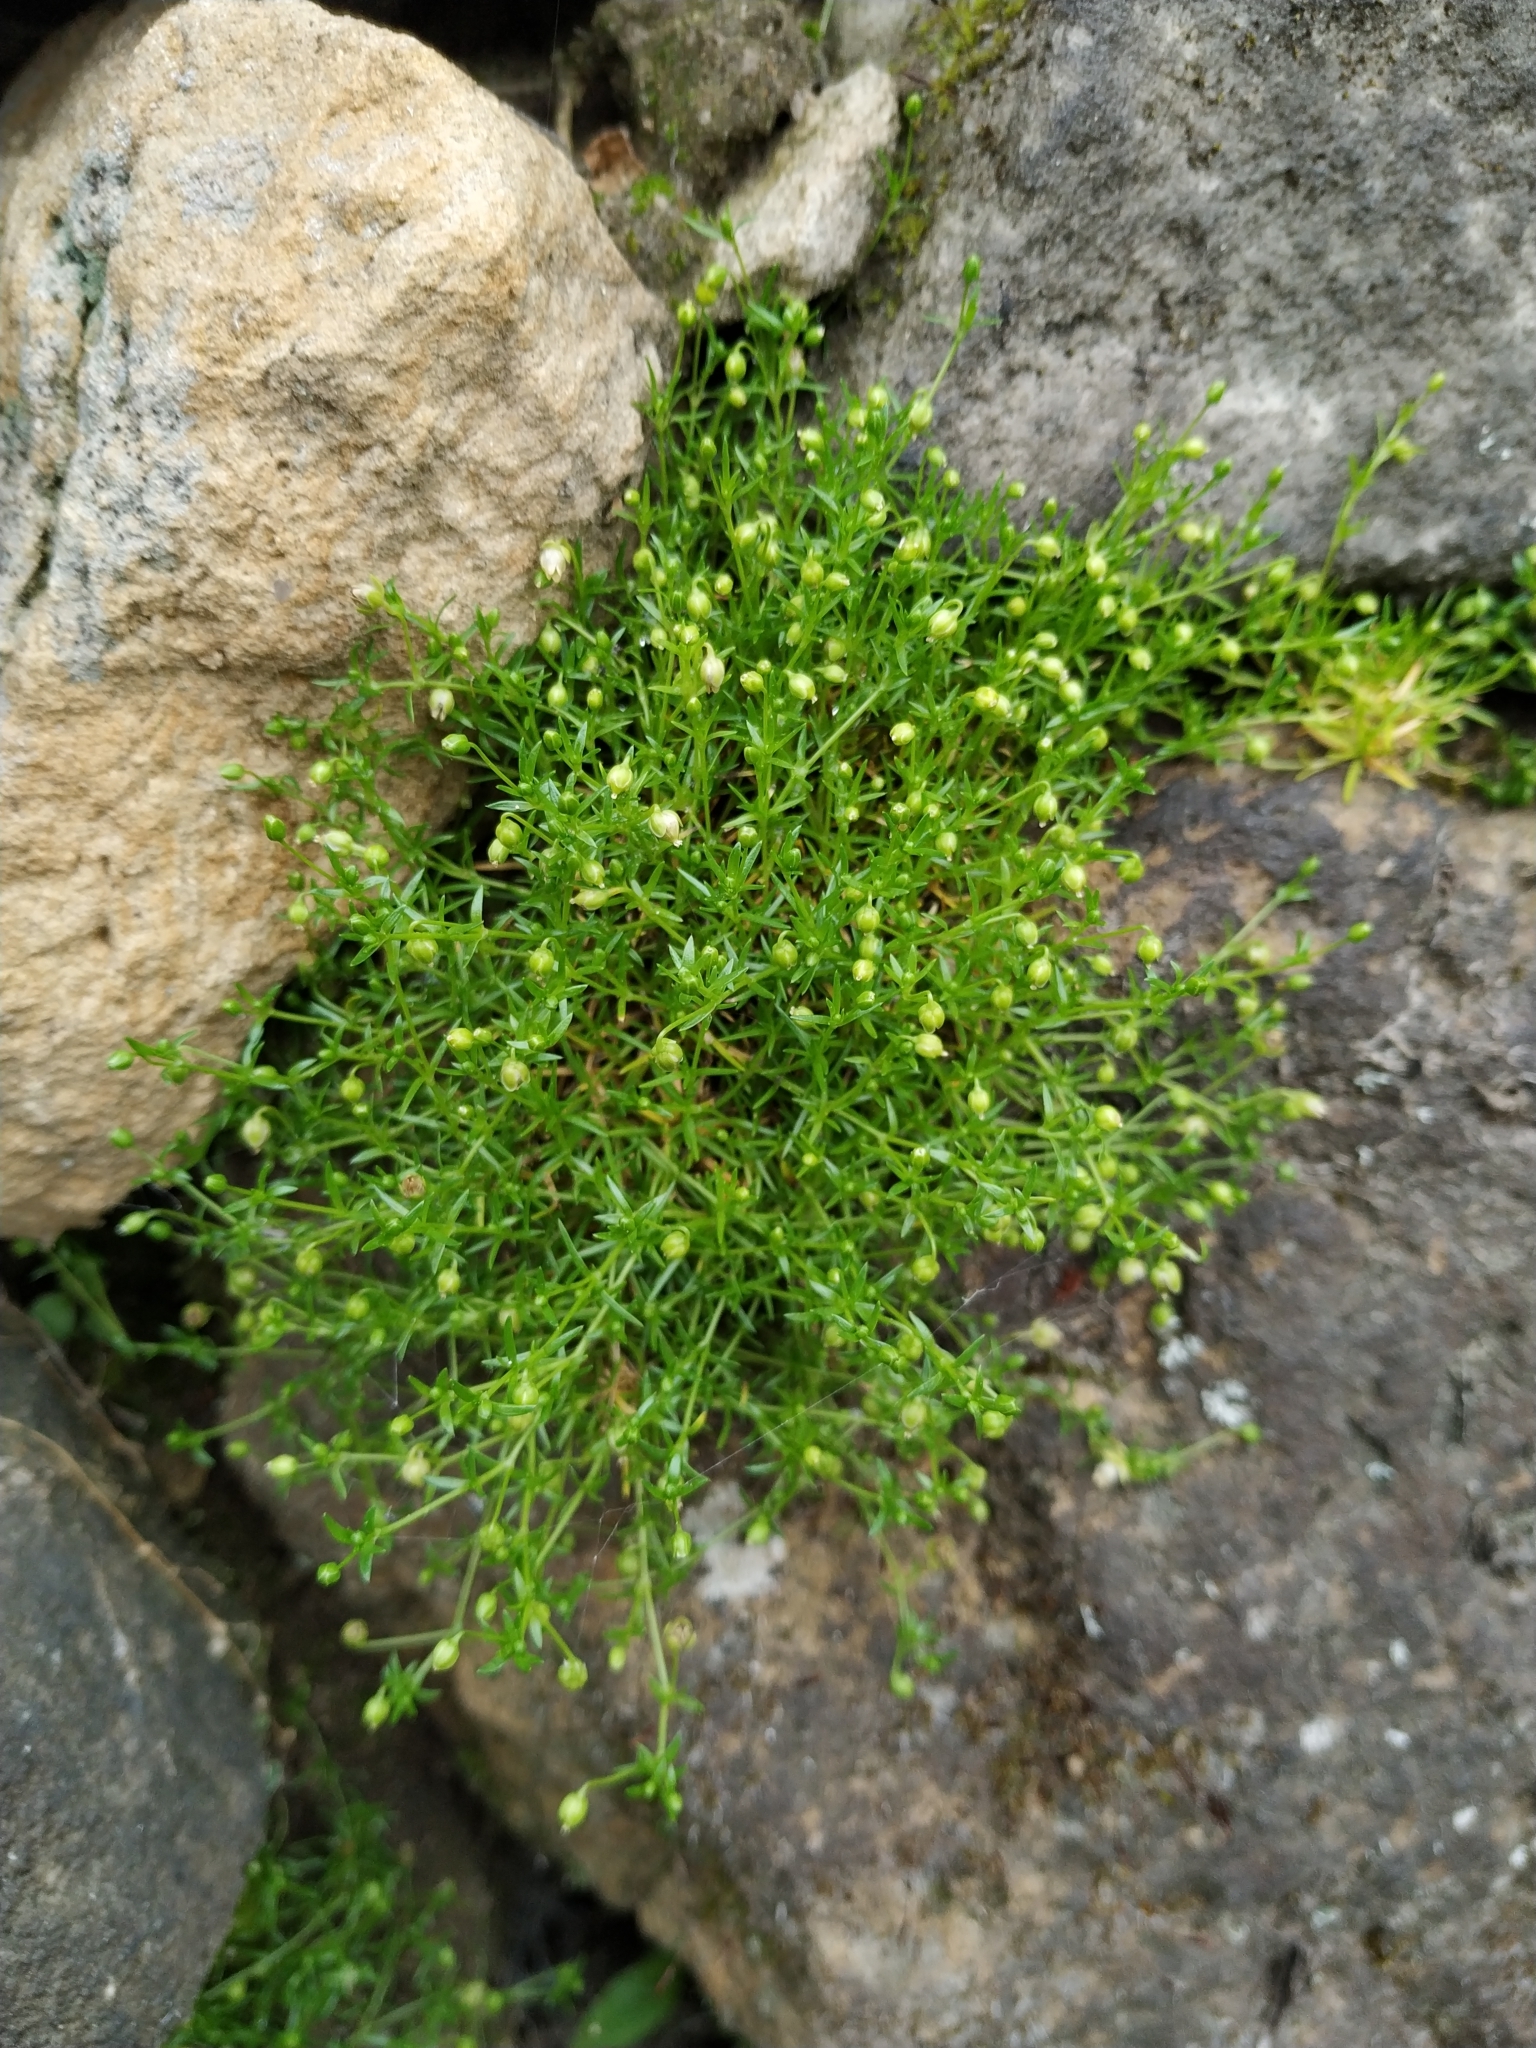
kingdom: Plantae
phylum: Tracheophyta
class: Magnoliopsida
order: Caryophyllales
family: Caryophyllaceae
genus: Sagina
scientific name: Sagina procumbens
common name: Procumbent pearlwort
